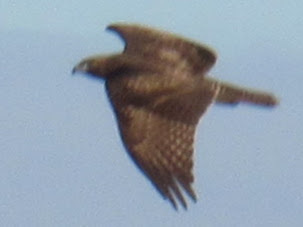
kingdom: Animalia
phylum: Chordata
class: Aves
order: Accipitriformes
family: Accipitridae
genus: Buteo
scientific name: Buteo jamaicensis
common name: Red-tailed hawk
